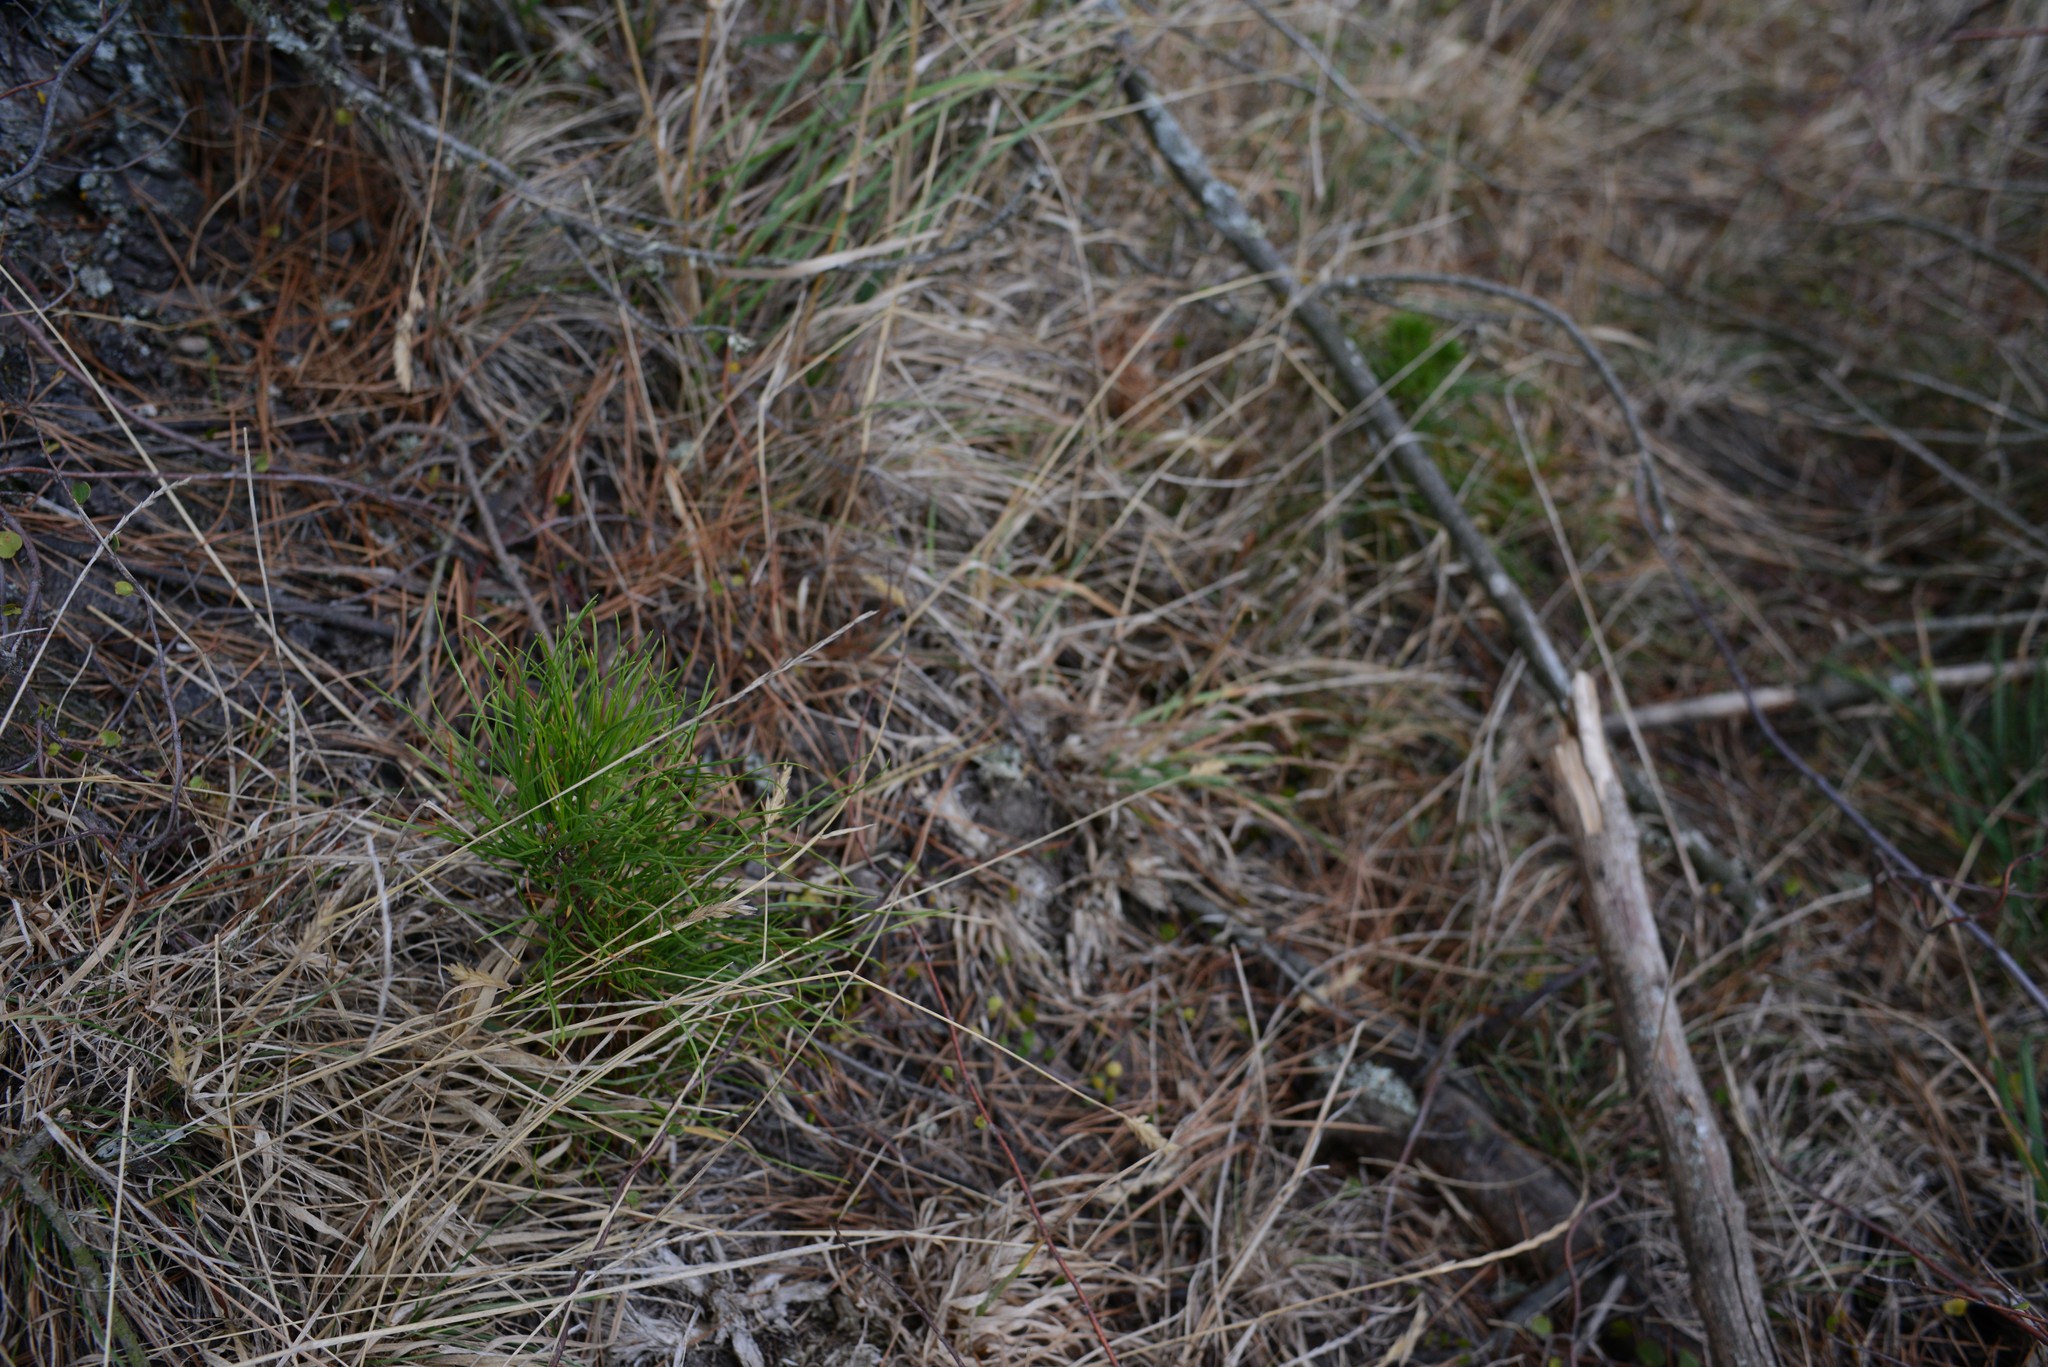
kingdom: Plantae
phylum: Tracheophyta
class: Pinopsida
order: Pinales
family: Pinaceae
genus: Pinus
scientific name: Pinus radiata
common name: Monterey pine
